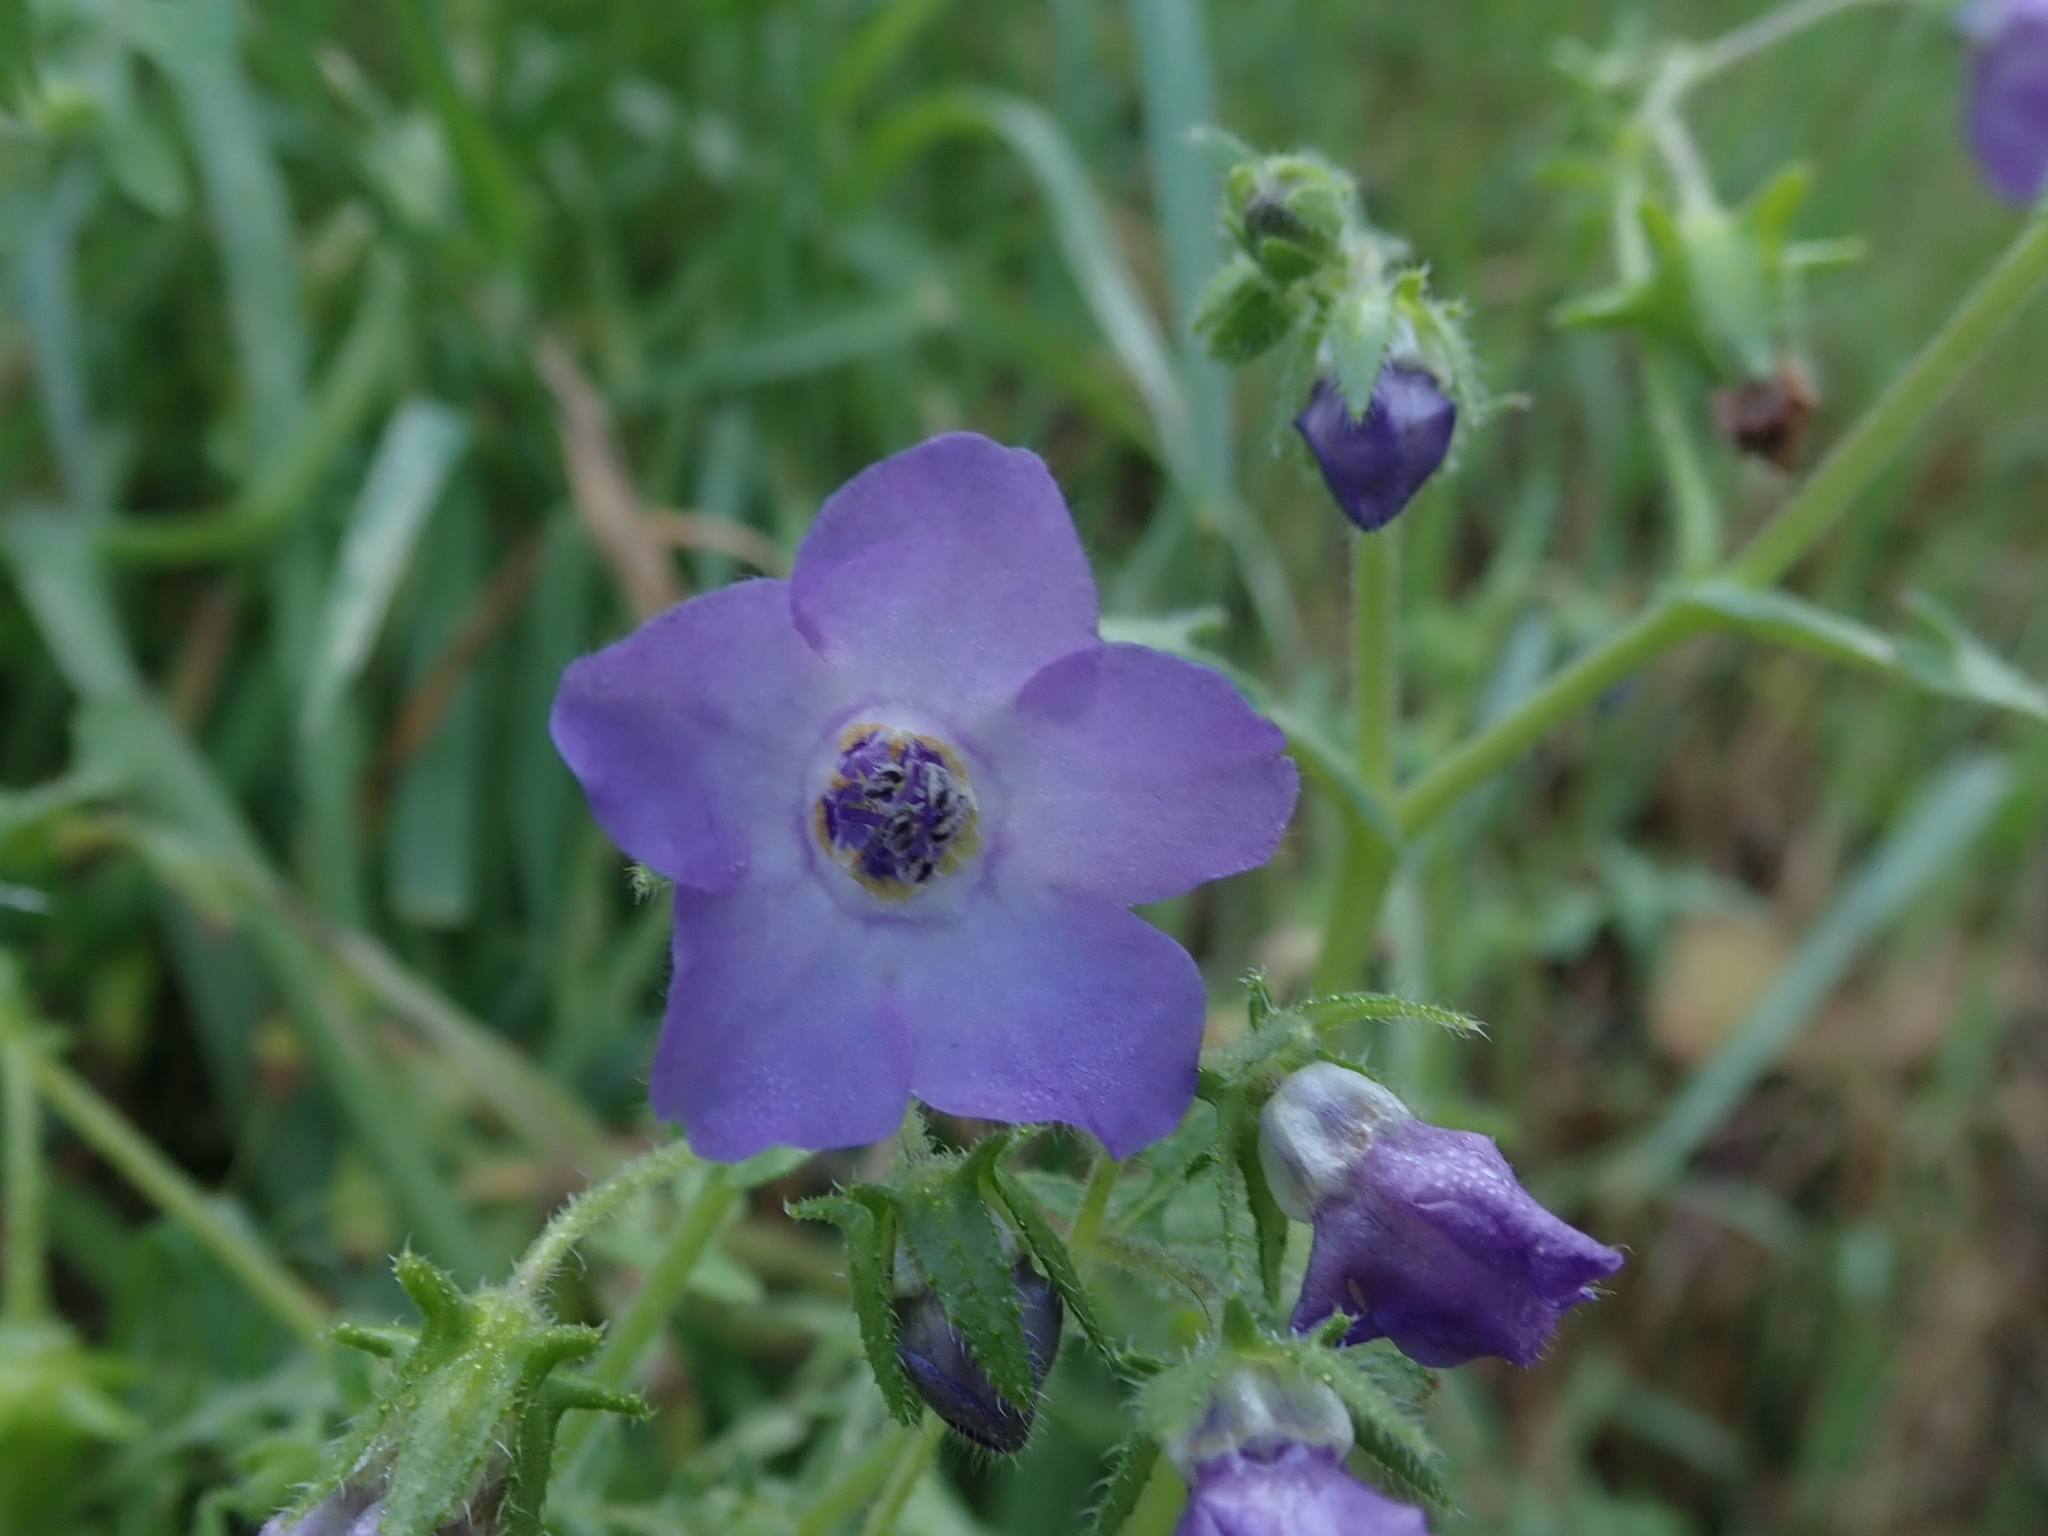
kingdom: Plantae
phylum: Tracheophyta
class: Magnoliopsida
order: Boraginales
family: Hydrophyllaceae
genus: Pholistoma
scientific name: Pholistoma auritum
